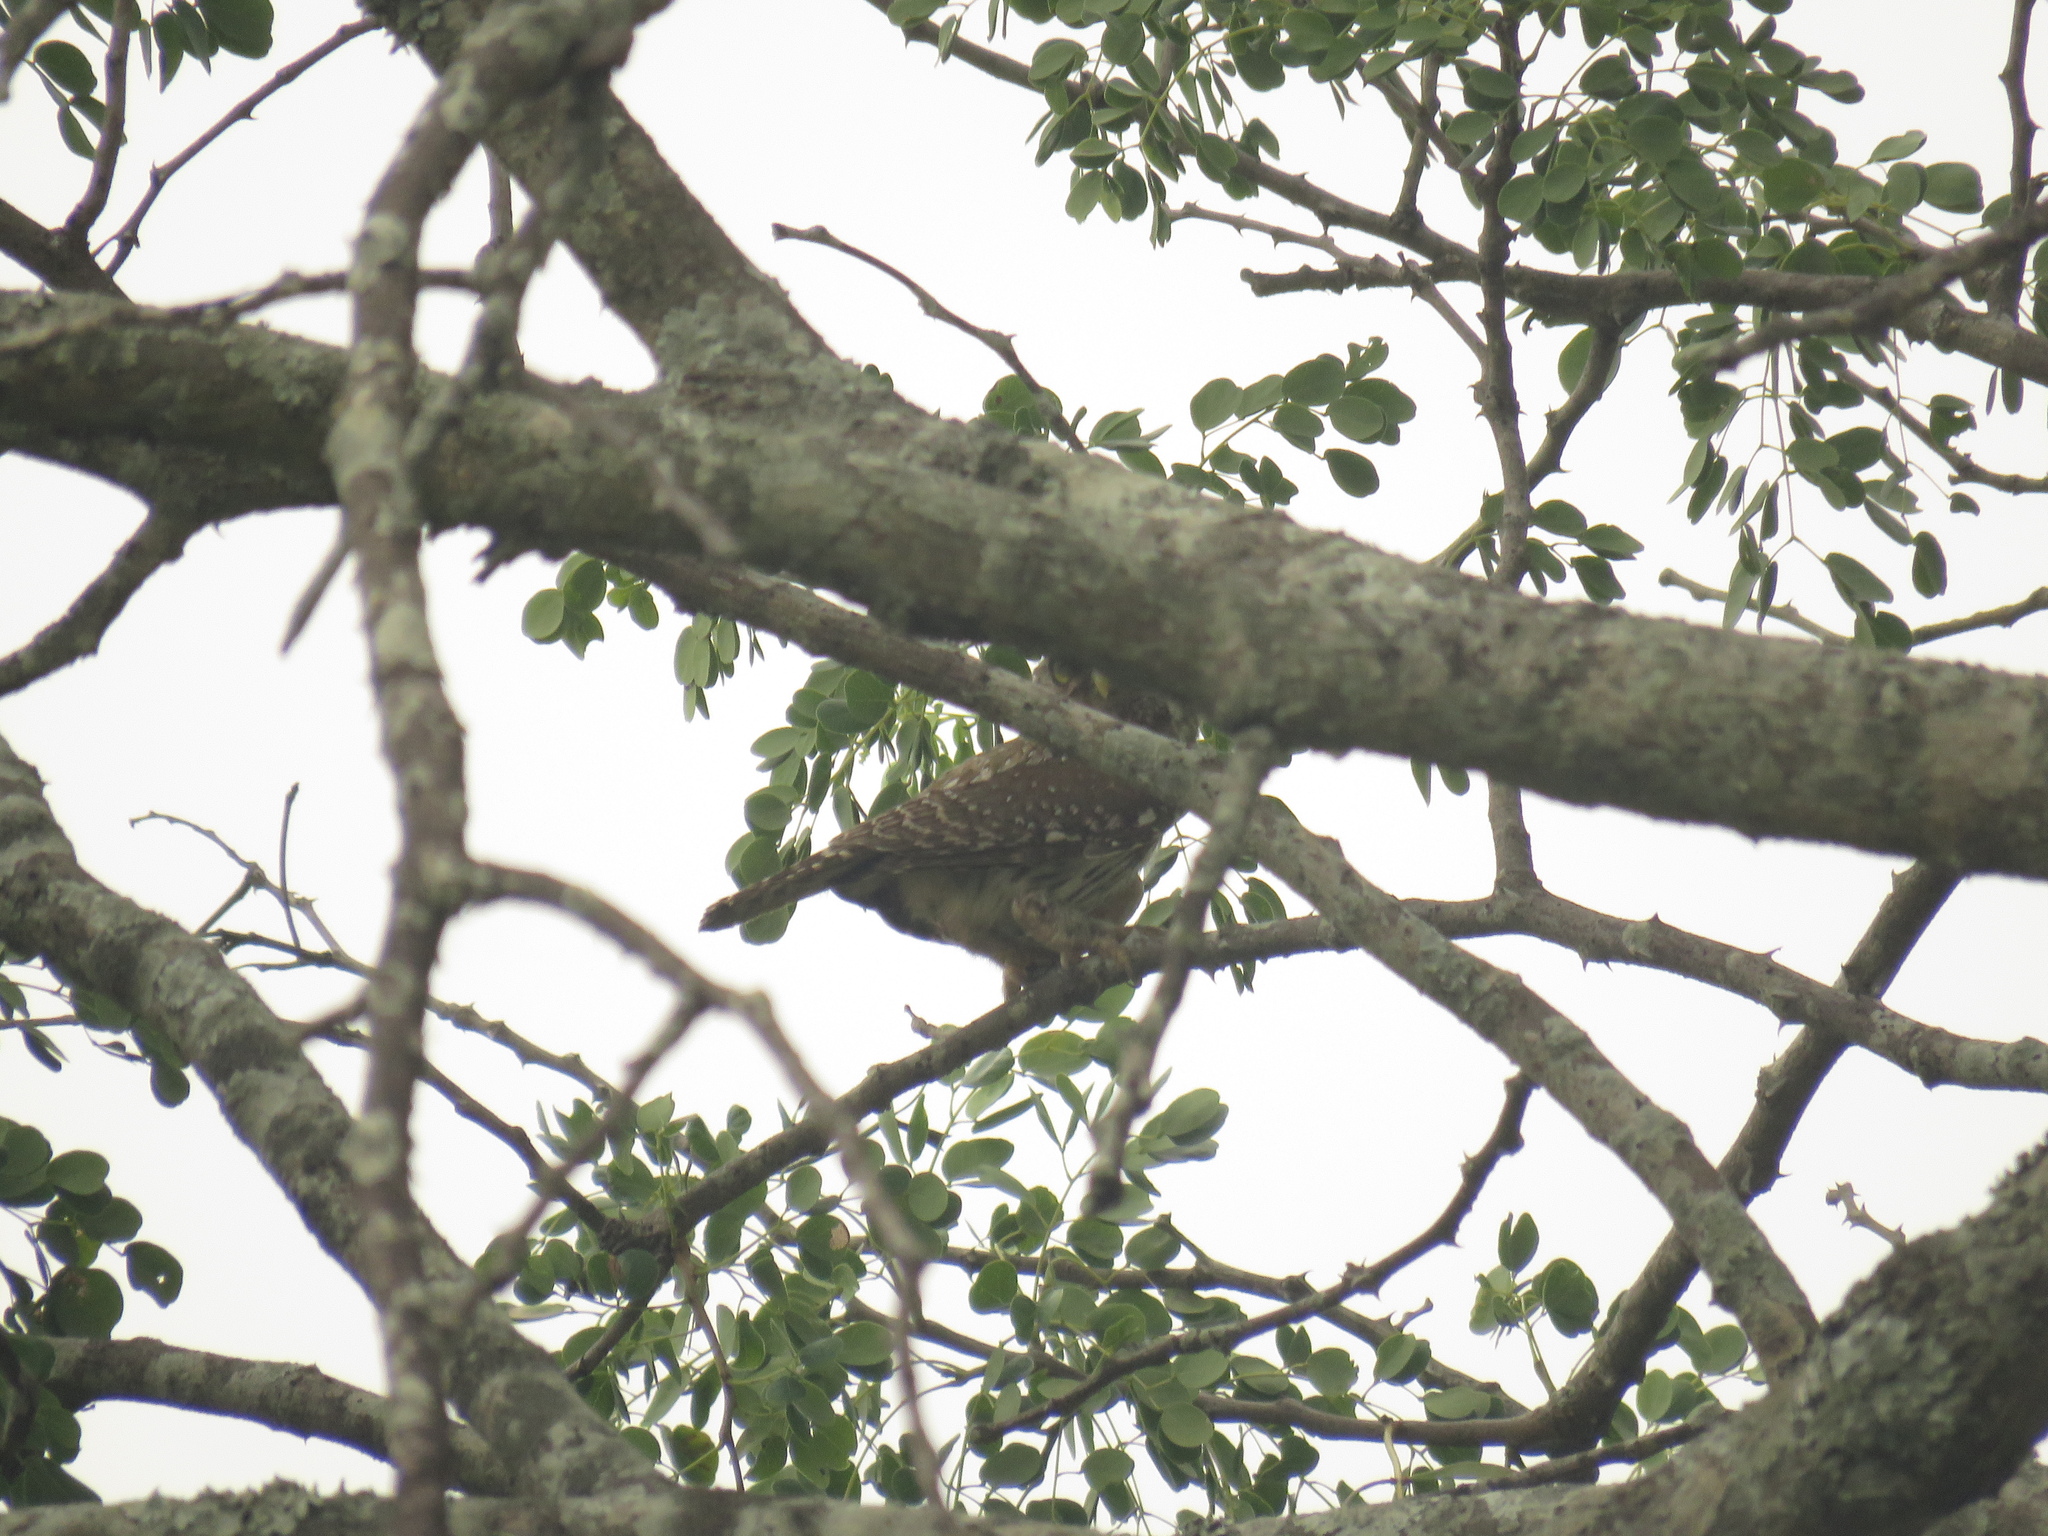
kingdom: Animalia
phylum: Chordata
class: Aves
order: Strigiformes
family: Strigidae
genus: Glaucidium
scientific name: Glaucidium perlatum
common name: Pearl-spotted owlet
